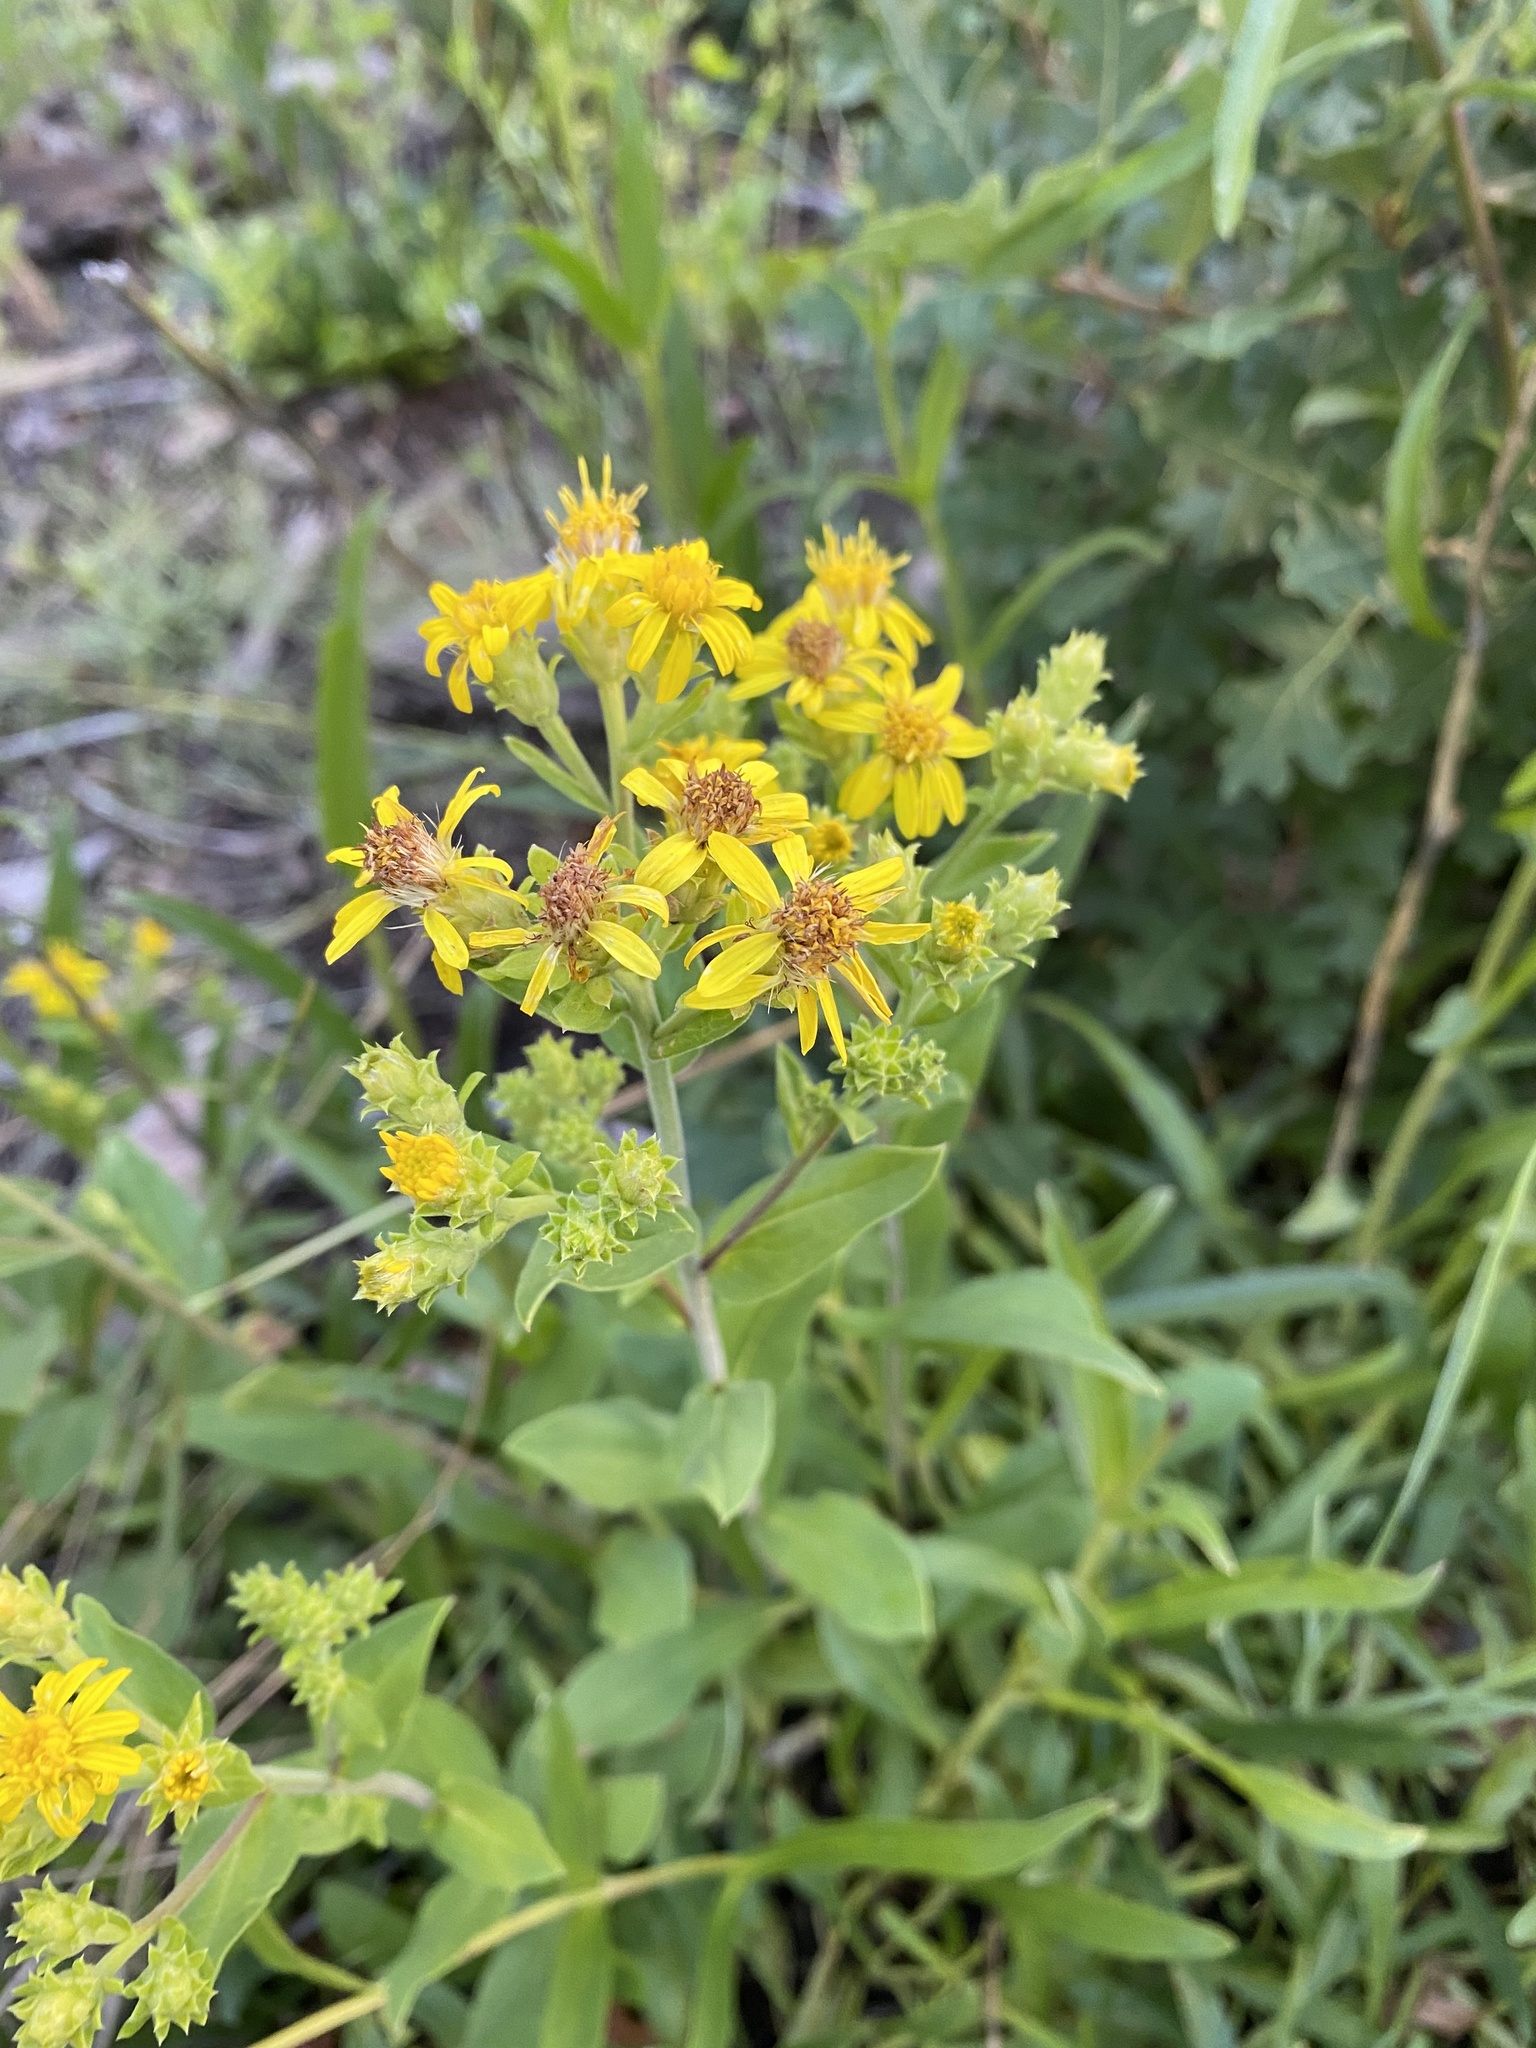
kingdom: Plantae
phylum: Tracheophyta
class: Magnoliopsida
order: Asterales
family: Asteraceae
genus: Oreochrysum
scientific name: Oreochrysum parryi
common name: Parry's goldenweed
